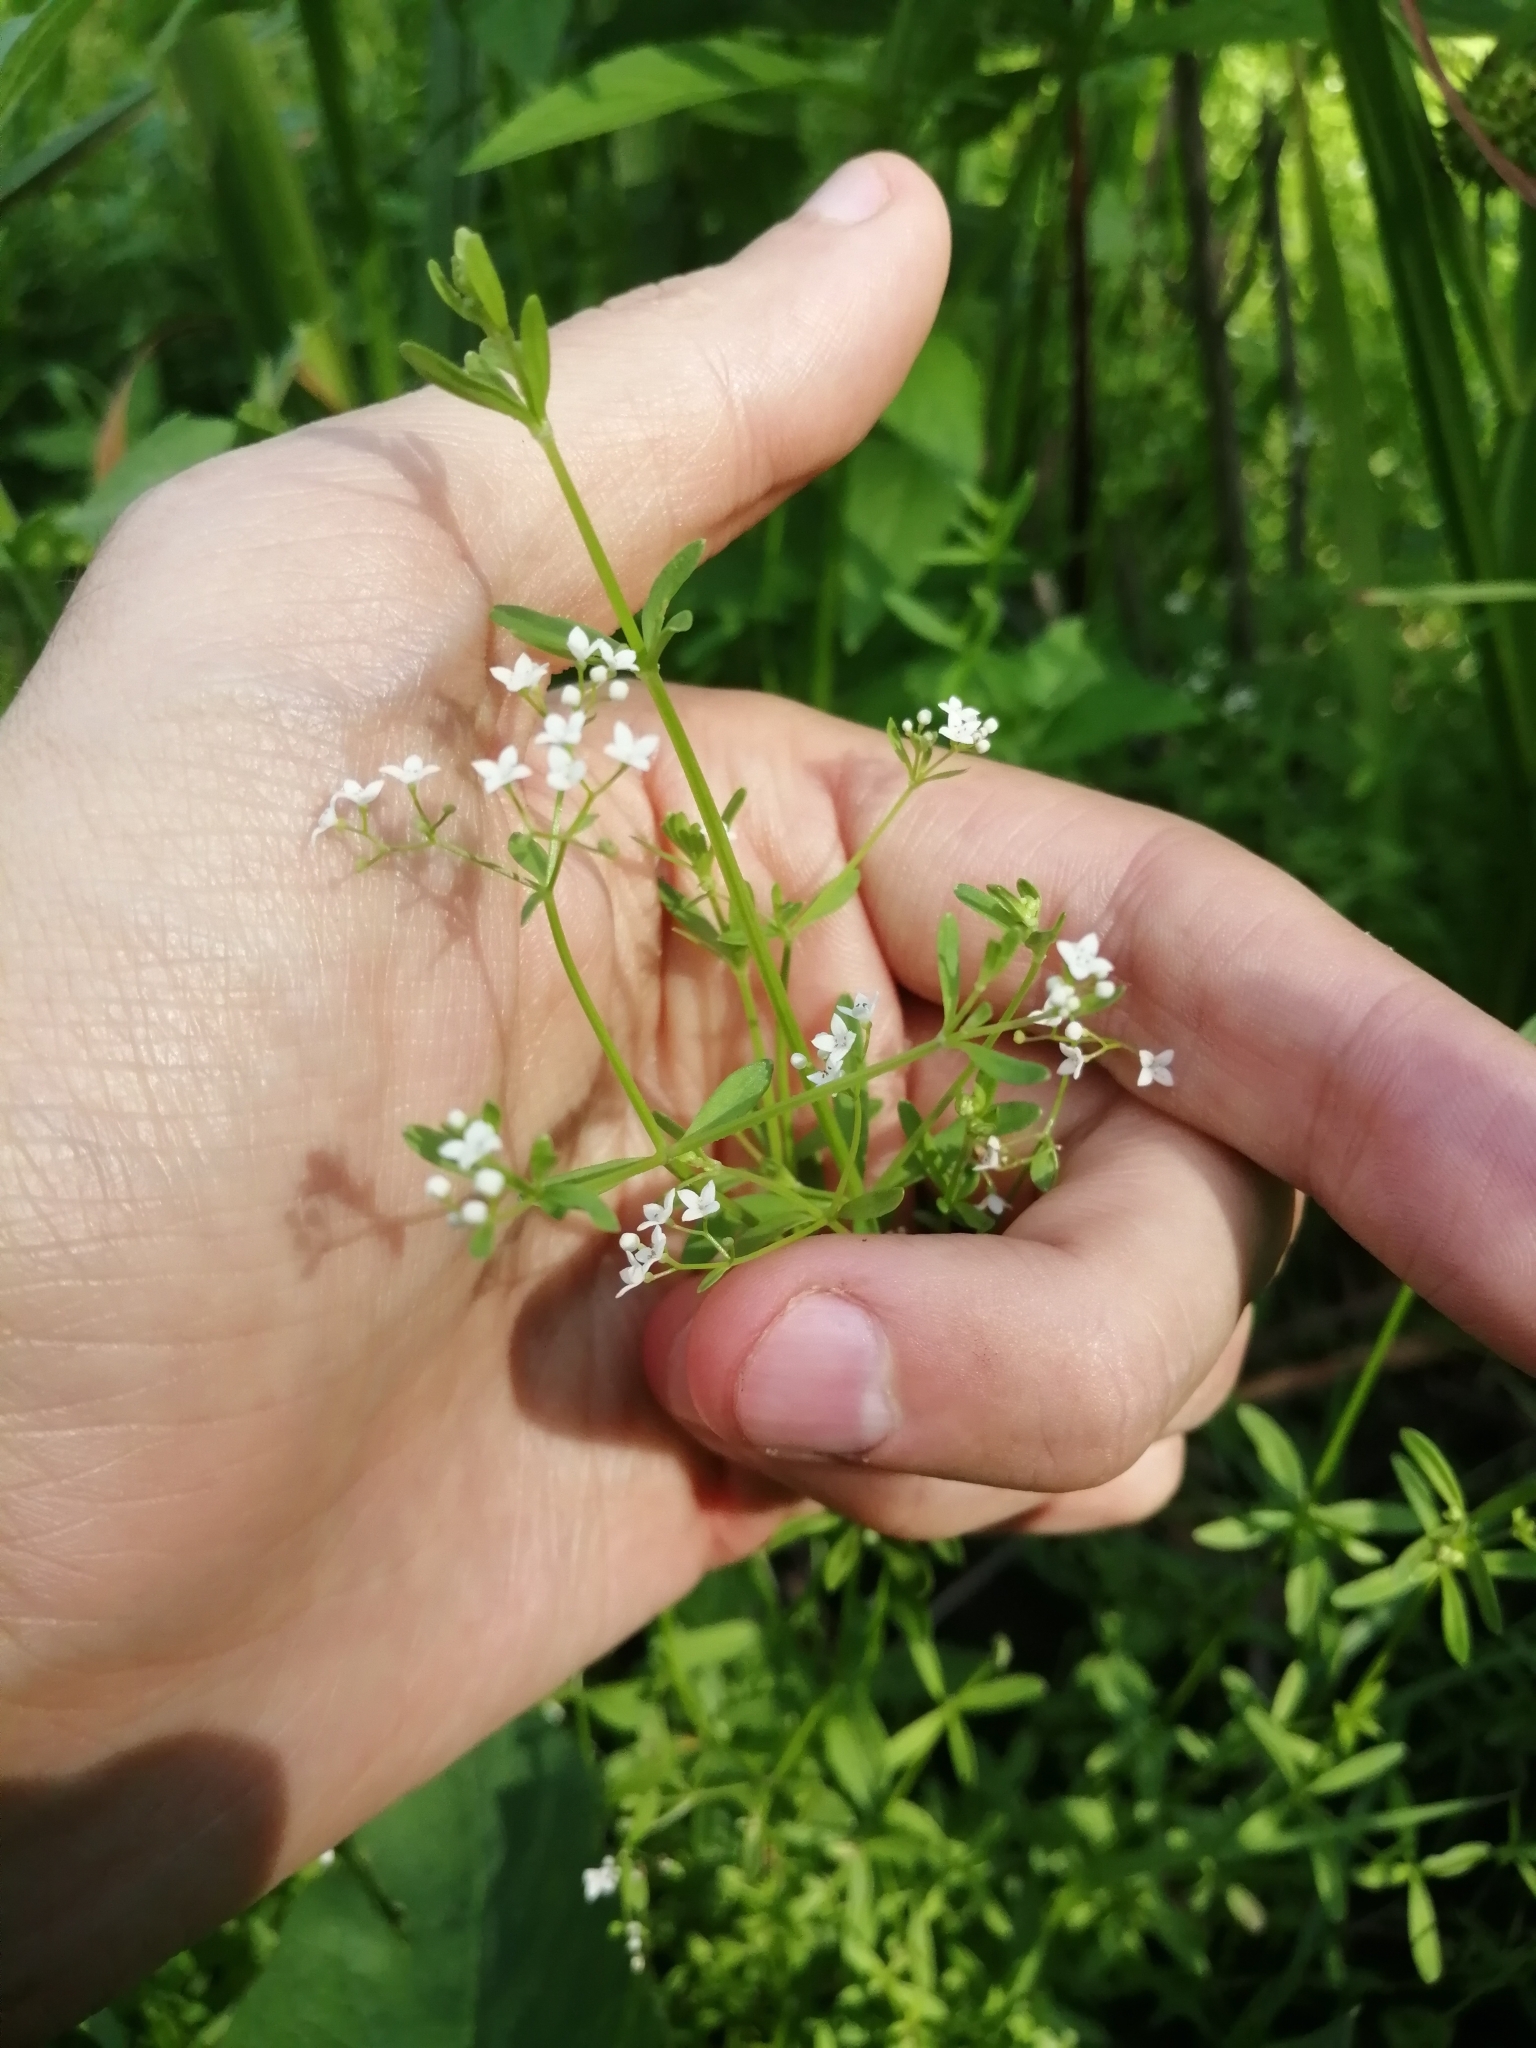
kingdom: Plantae
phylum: Tracheophyta
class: Magnoliopsida
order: Gentianales
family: Rubiaceae
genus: Galium
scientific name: Galium palustre
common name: Common marsh-bedstraw
